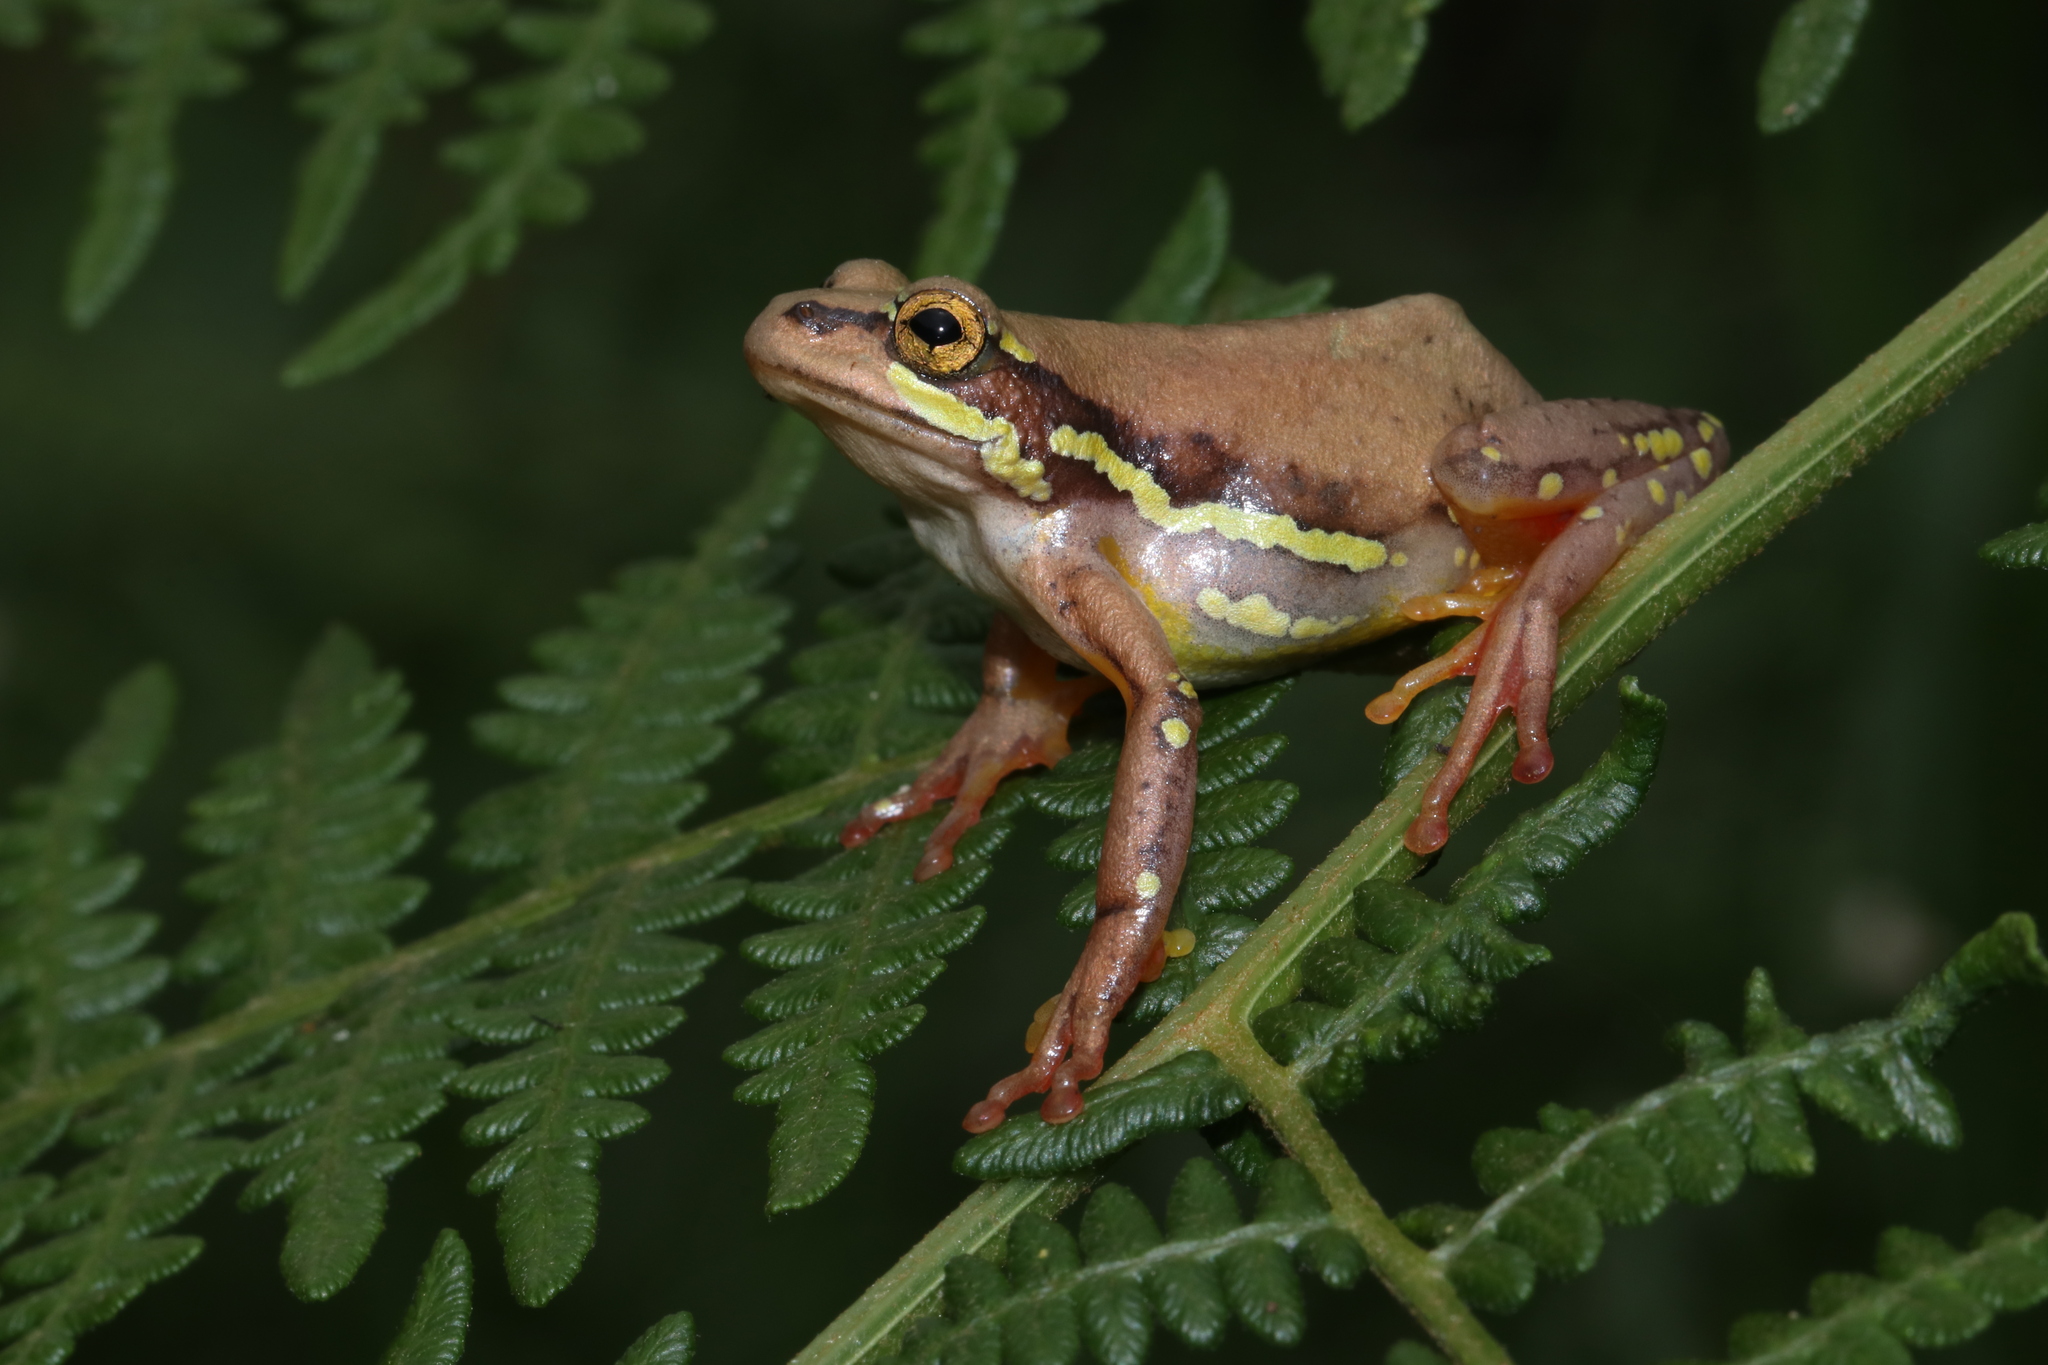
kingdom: Animalia
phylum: Chordata
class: Amphibia
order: Anura
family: Hyperoliidae
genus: Hyperolius
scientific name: Hyperolius pictus
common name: Variable reed frog
